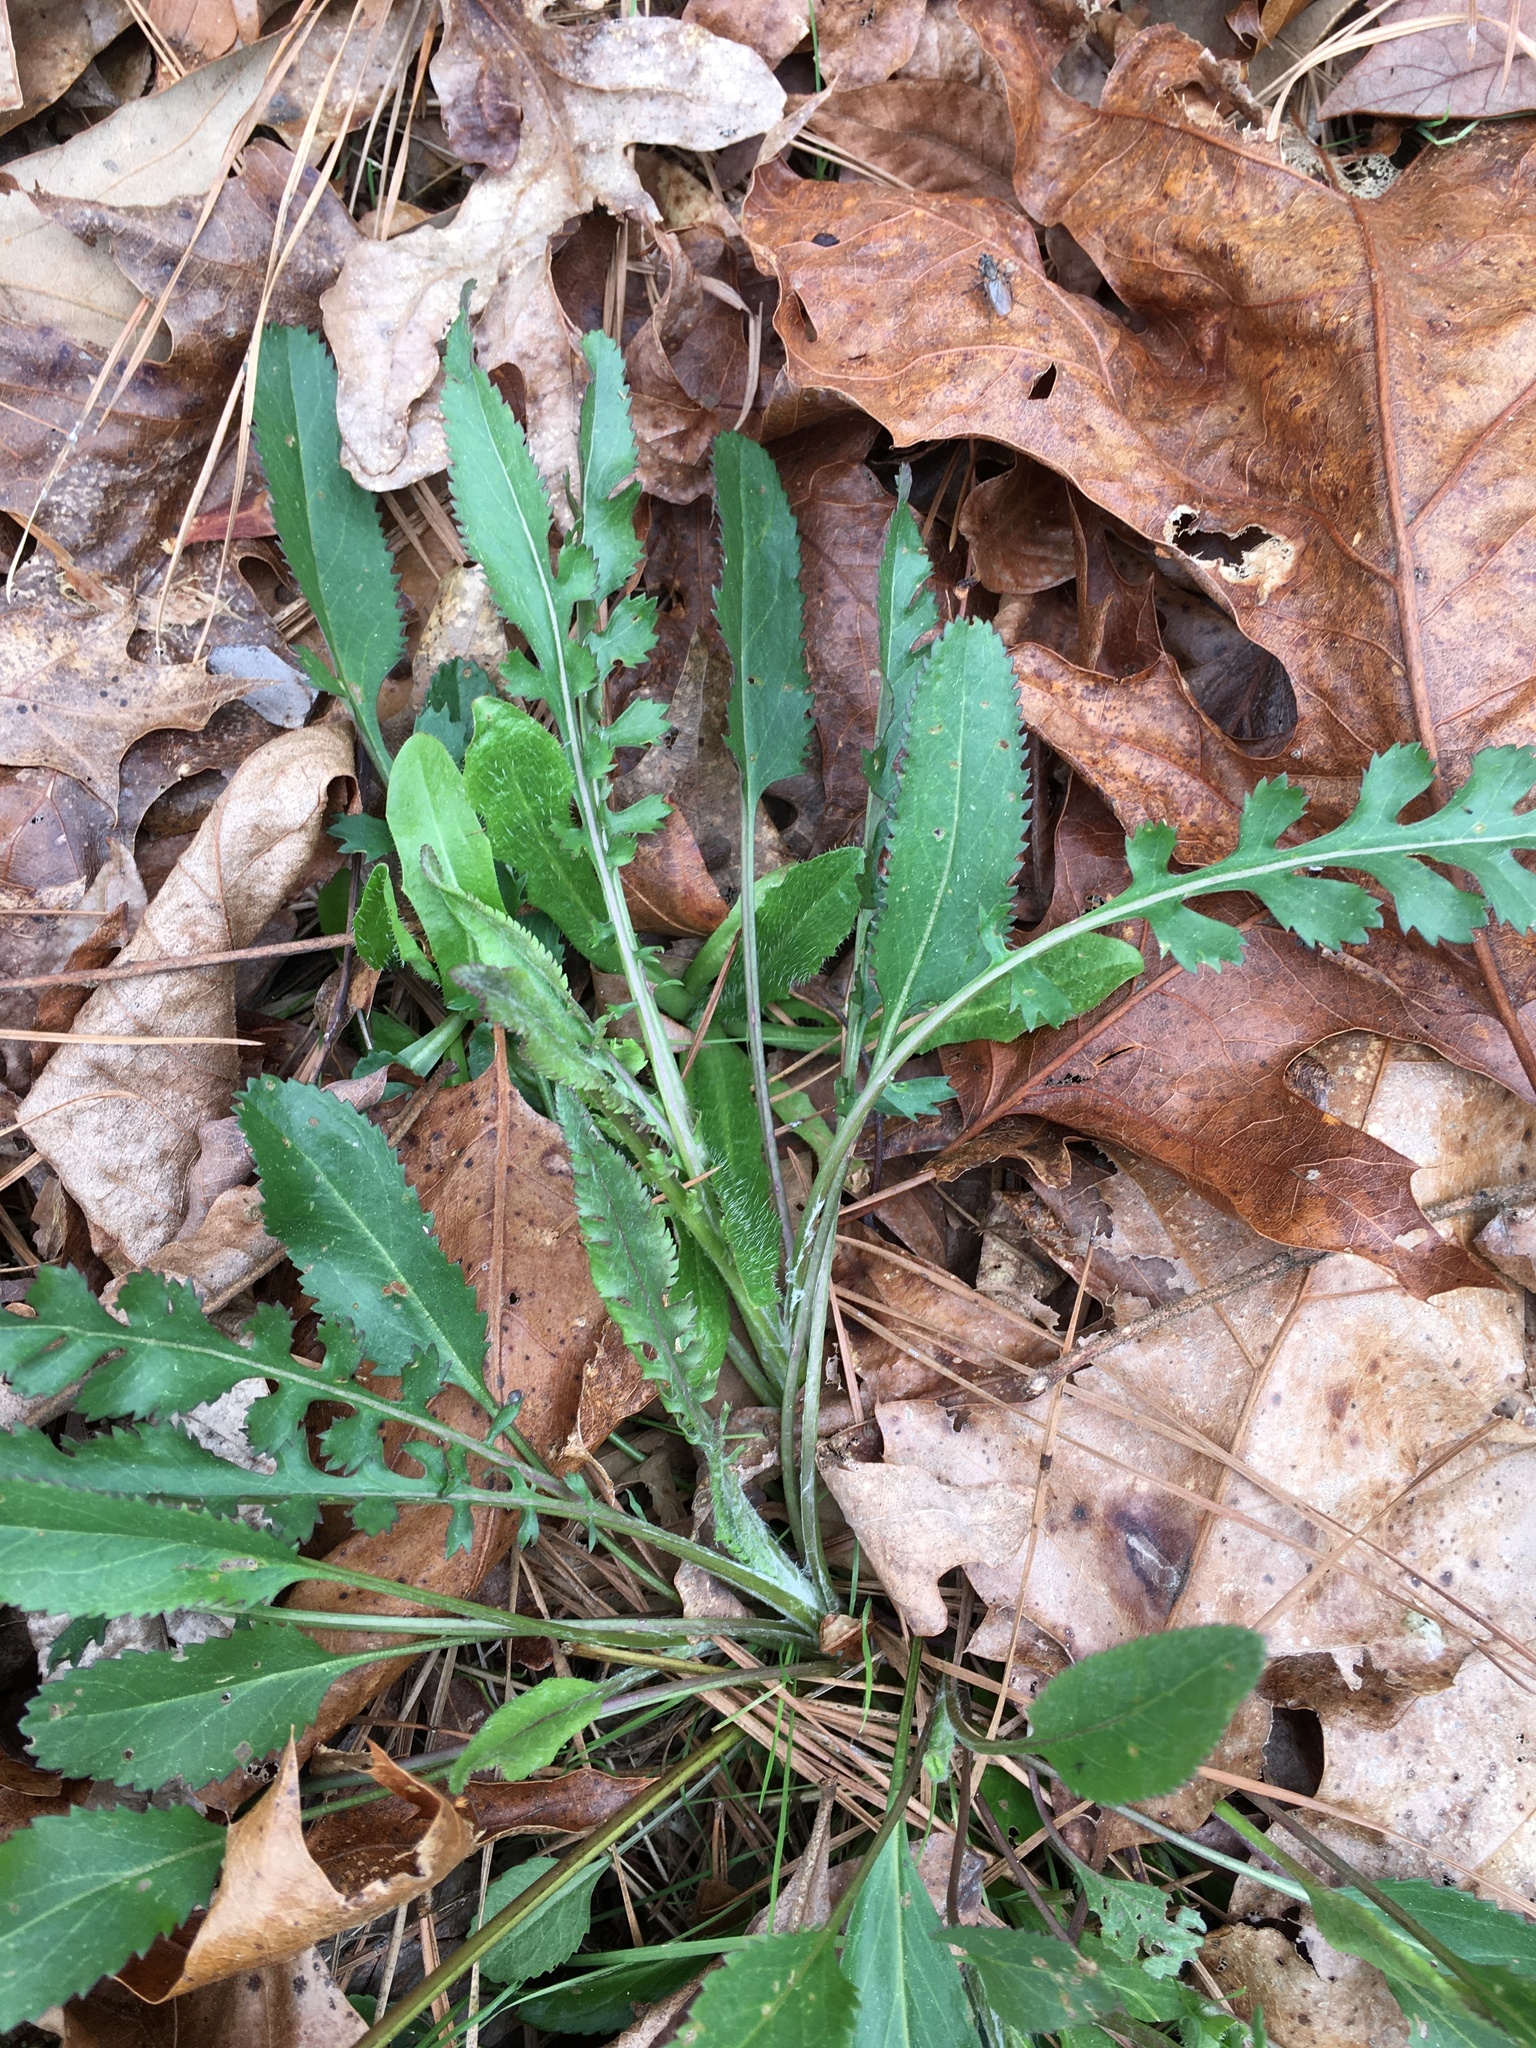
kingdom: Plantae
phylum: Tracheophyta
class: Magnoliopsida
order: Asterales
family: Asteraceae
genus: Packera
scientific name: Packera anonyma
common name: Small ragwort
